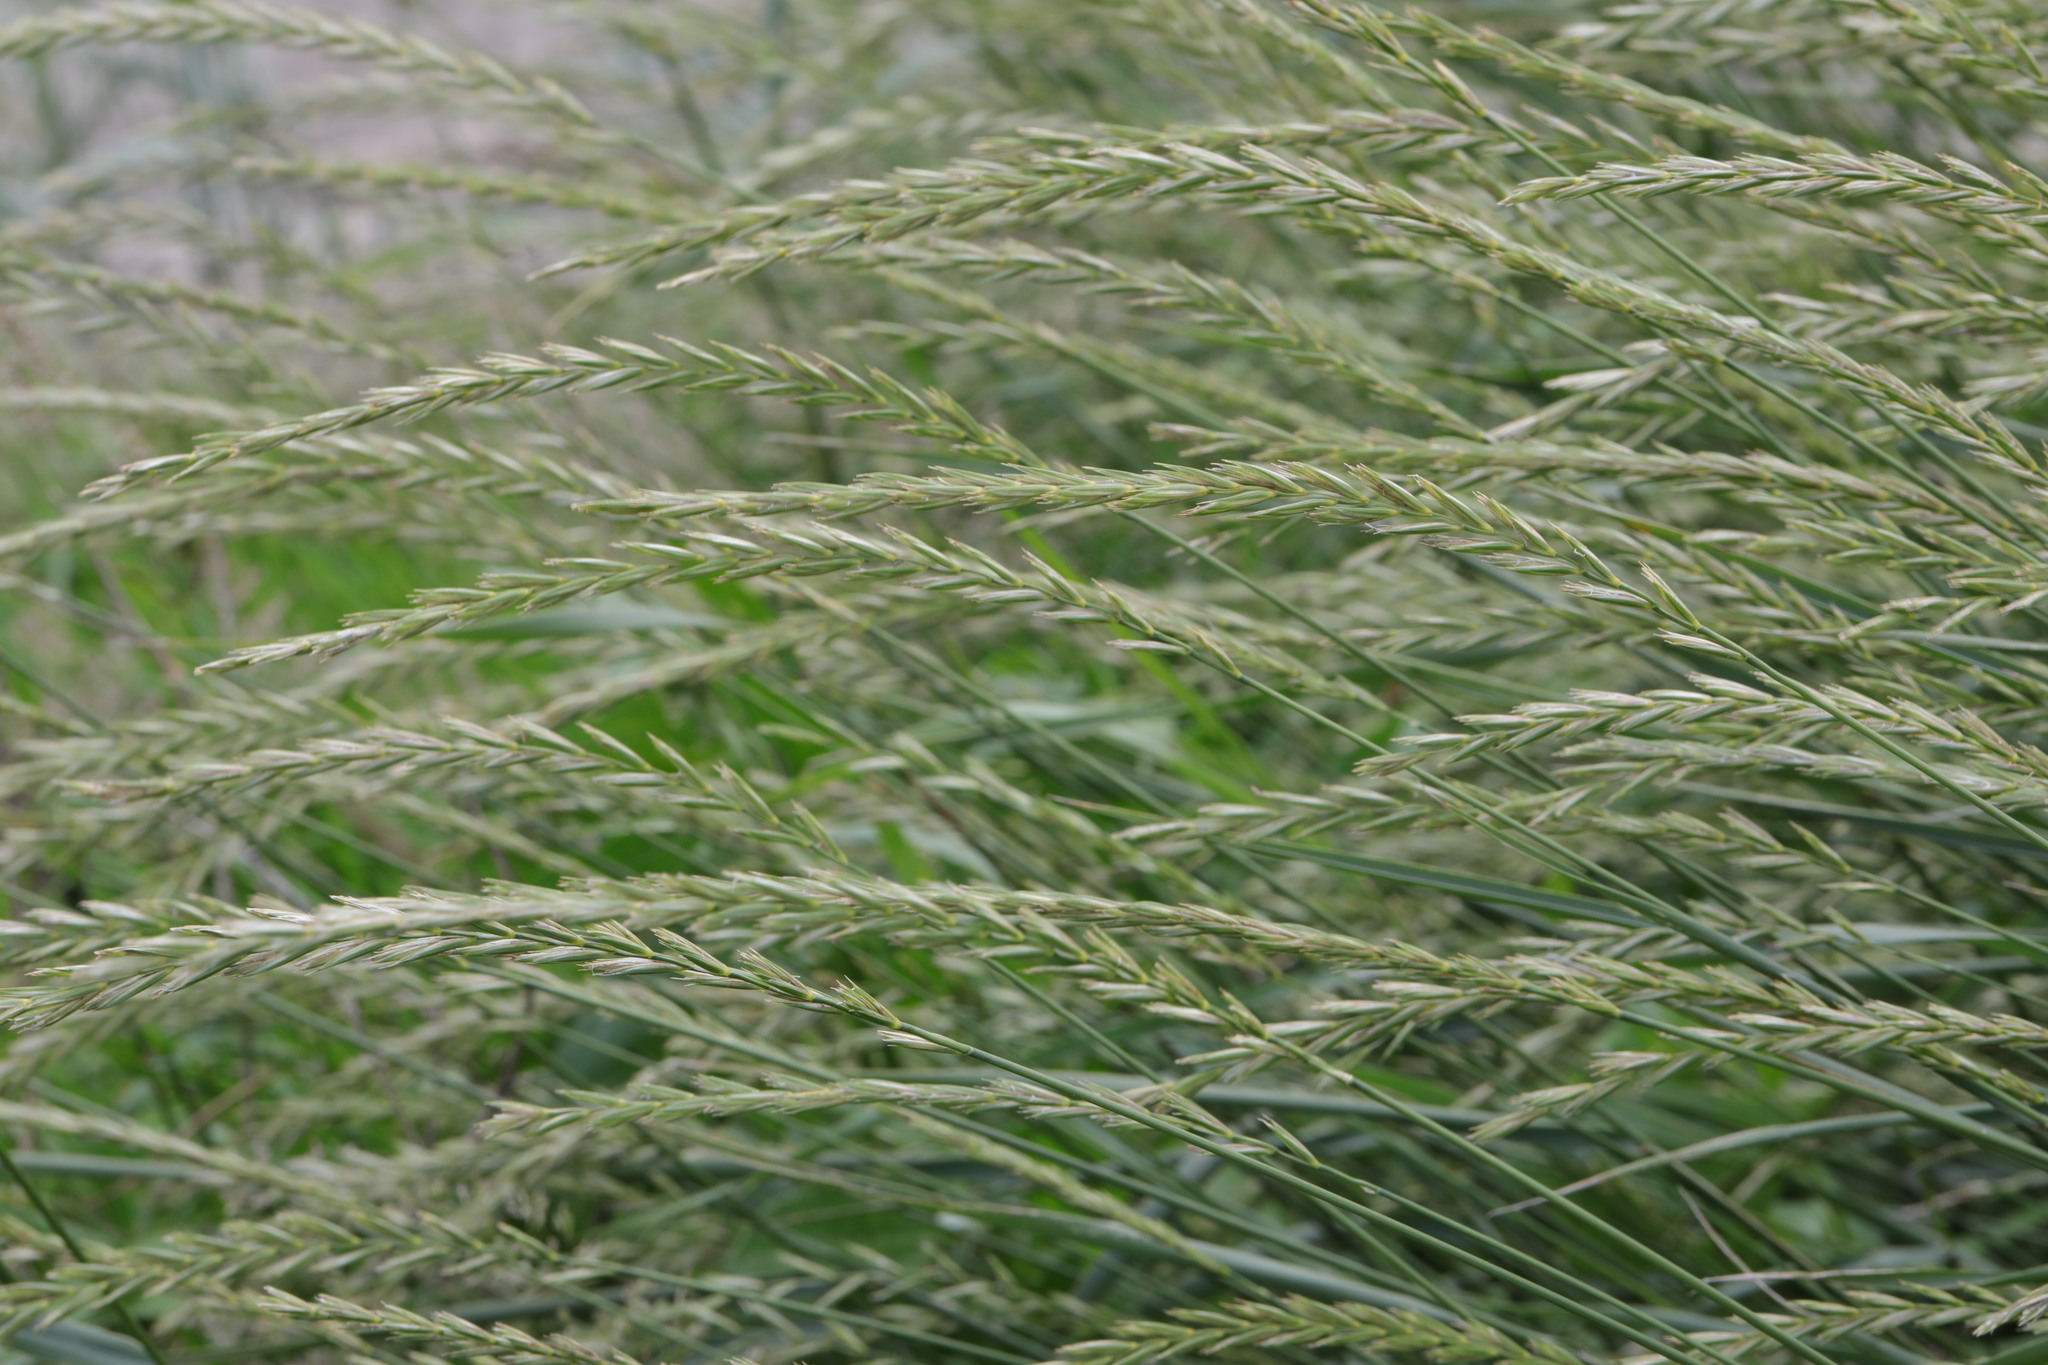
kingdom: Plantae
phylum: Tracheophyta
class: Liliopsida
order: Poales
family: Poaceae
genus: Elymus
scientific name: Elymus repens
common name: Quackgrass
